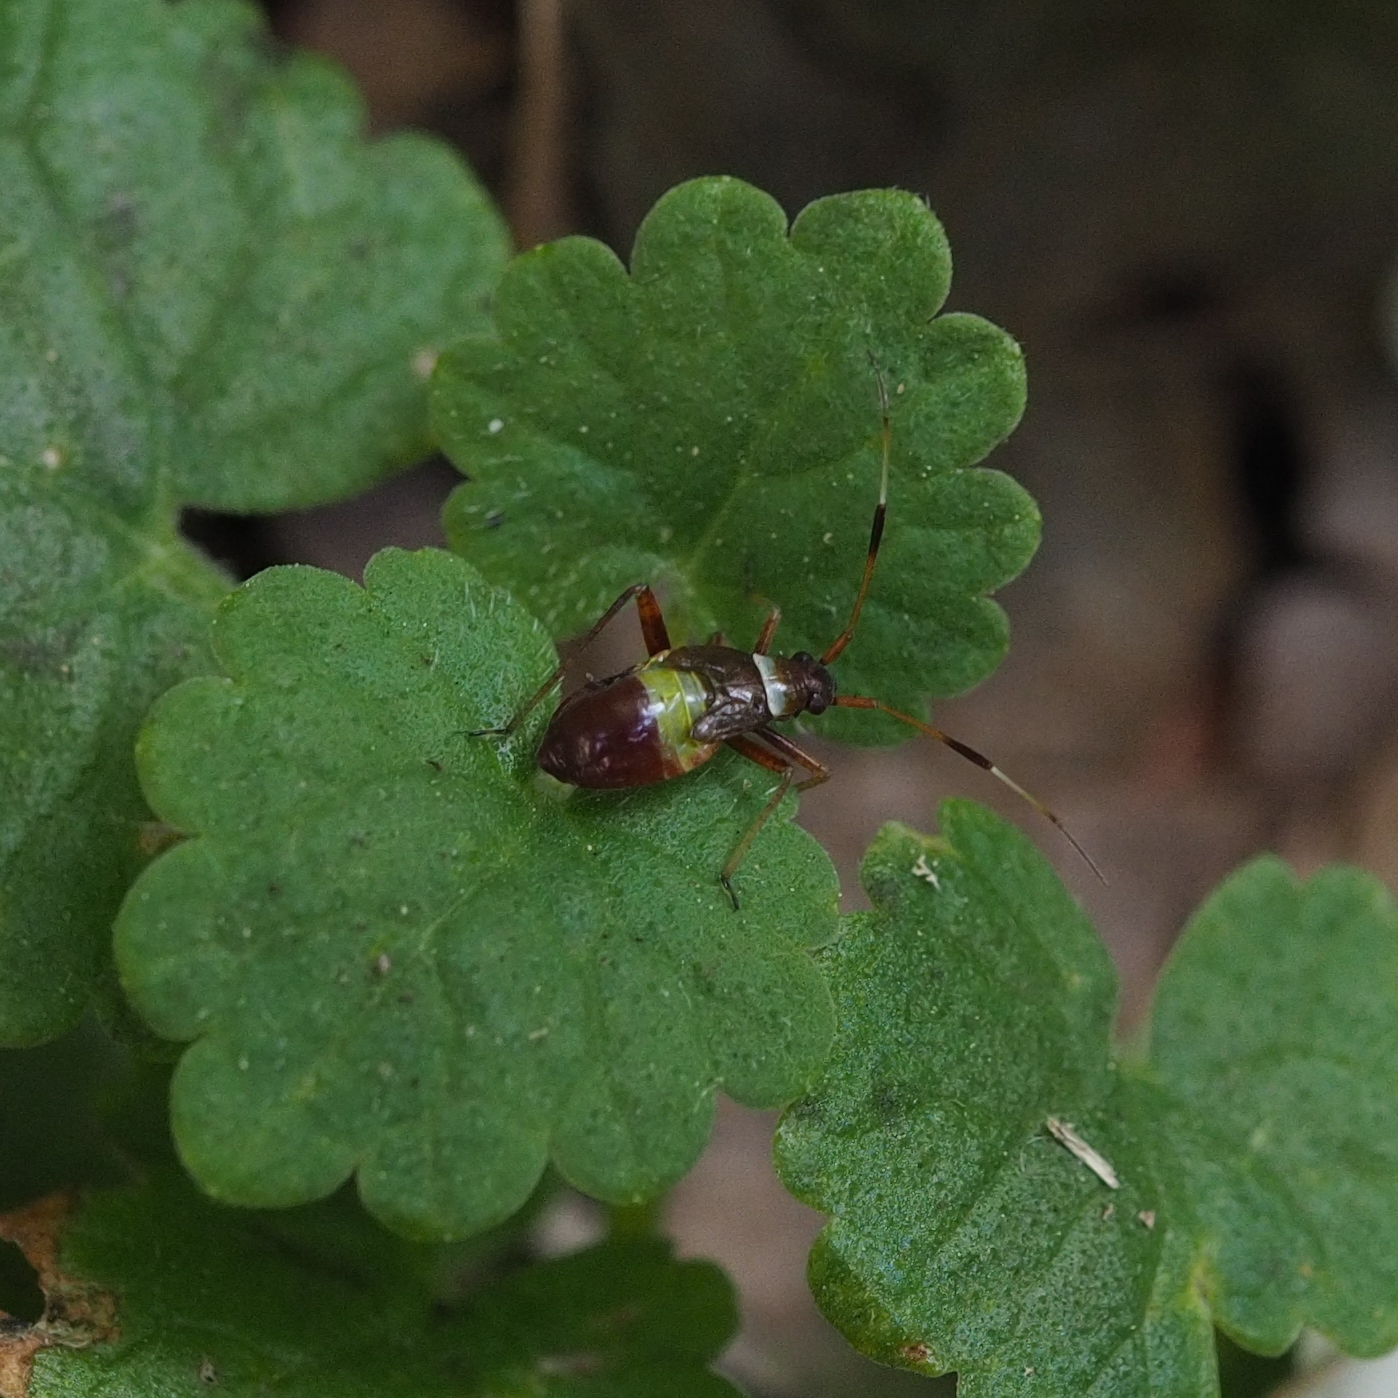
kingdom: Animalia
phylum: Arthropoda
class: Insecta
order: Hemiptera
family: Miridae
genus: Closterotomus
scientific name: Closterotomus biclavatus
